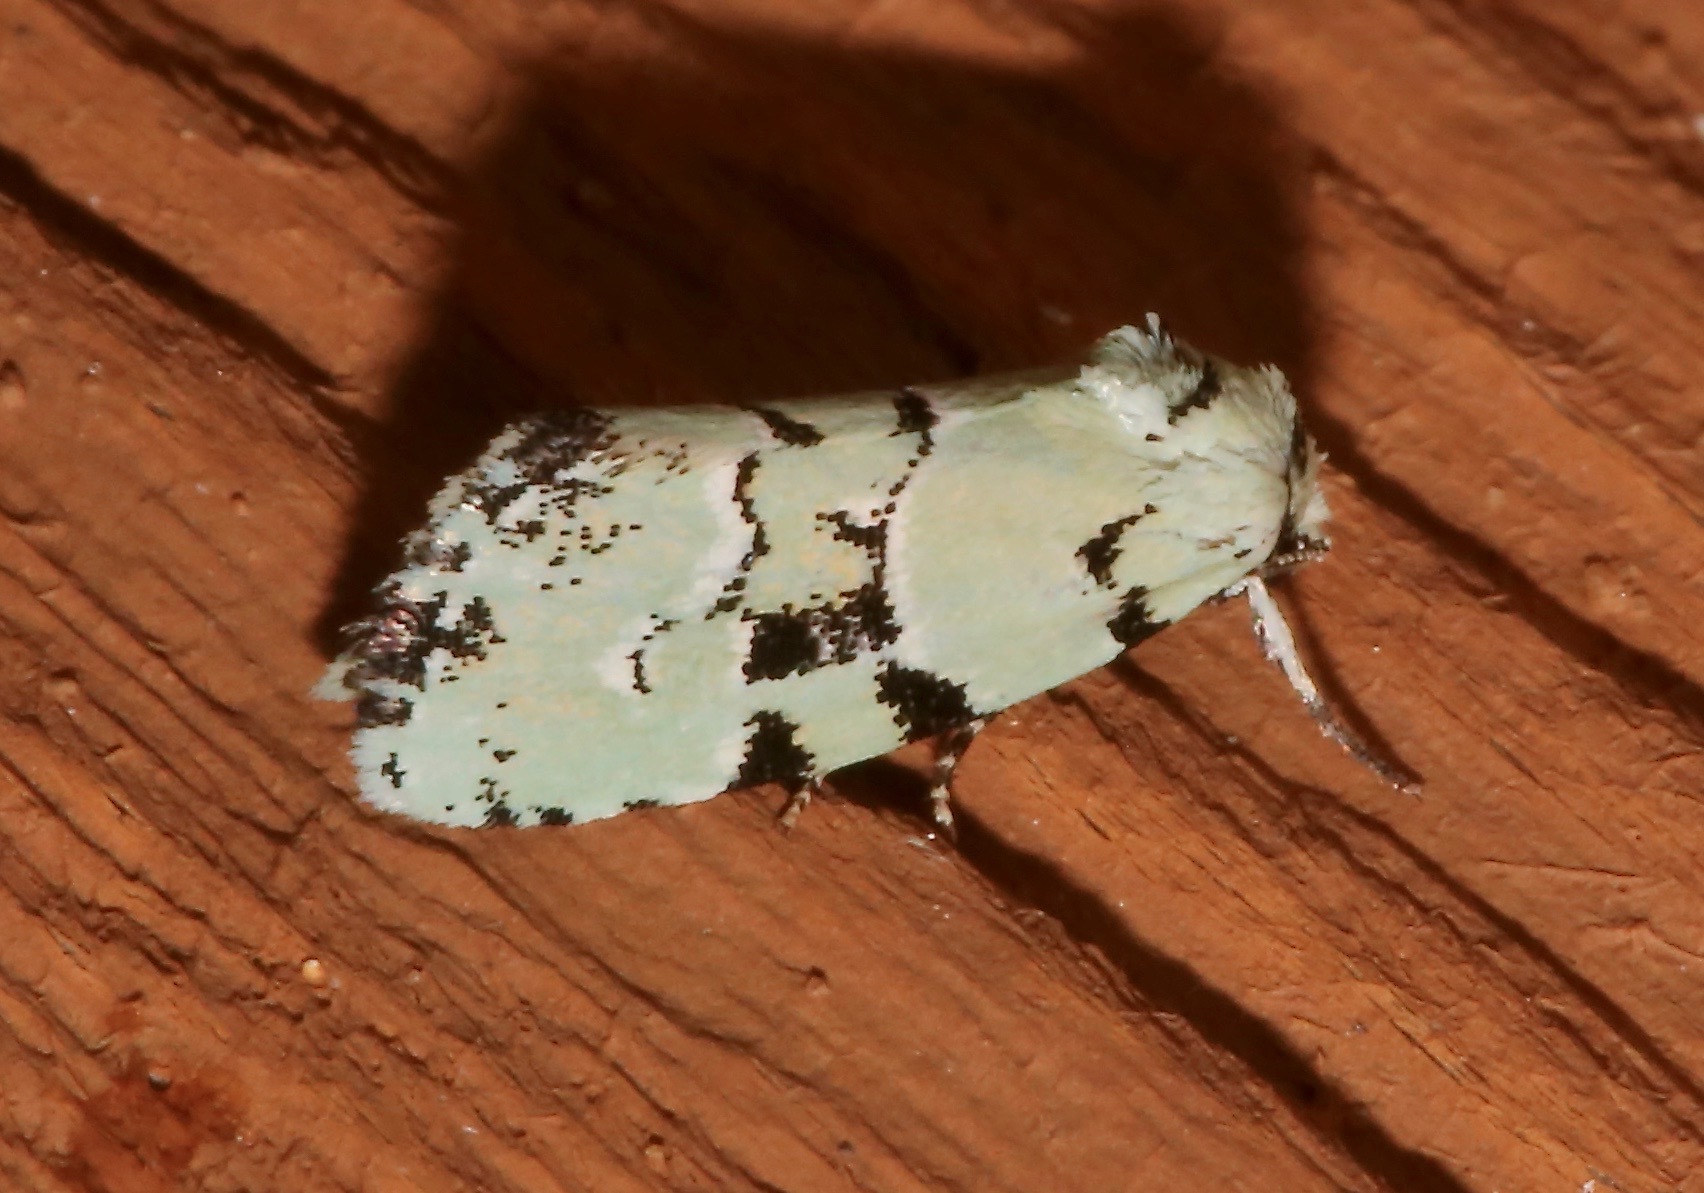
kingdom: Animalia
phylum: Arthropoda
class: Insecta
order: Lepidoptera
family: Noctuidae
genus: Elaphria
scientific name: Elaphria cyanympha
